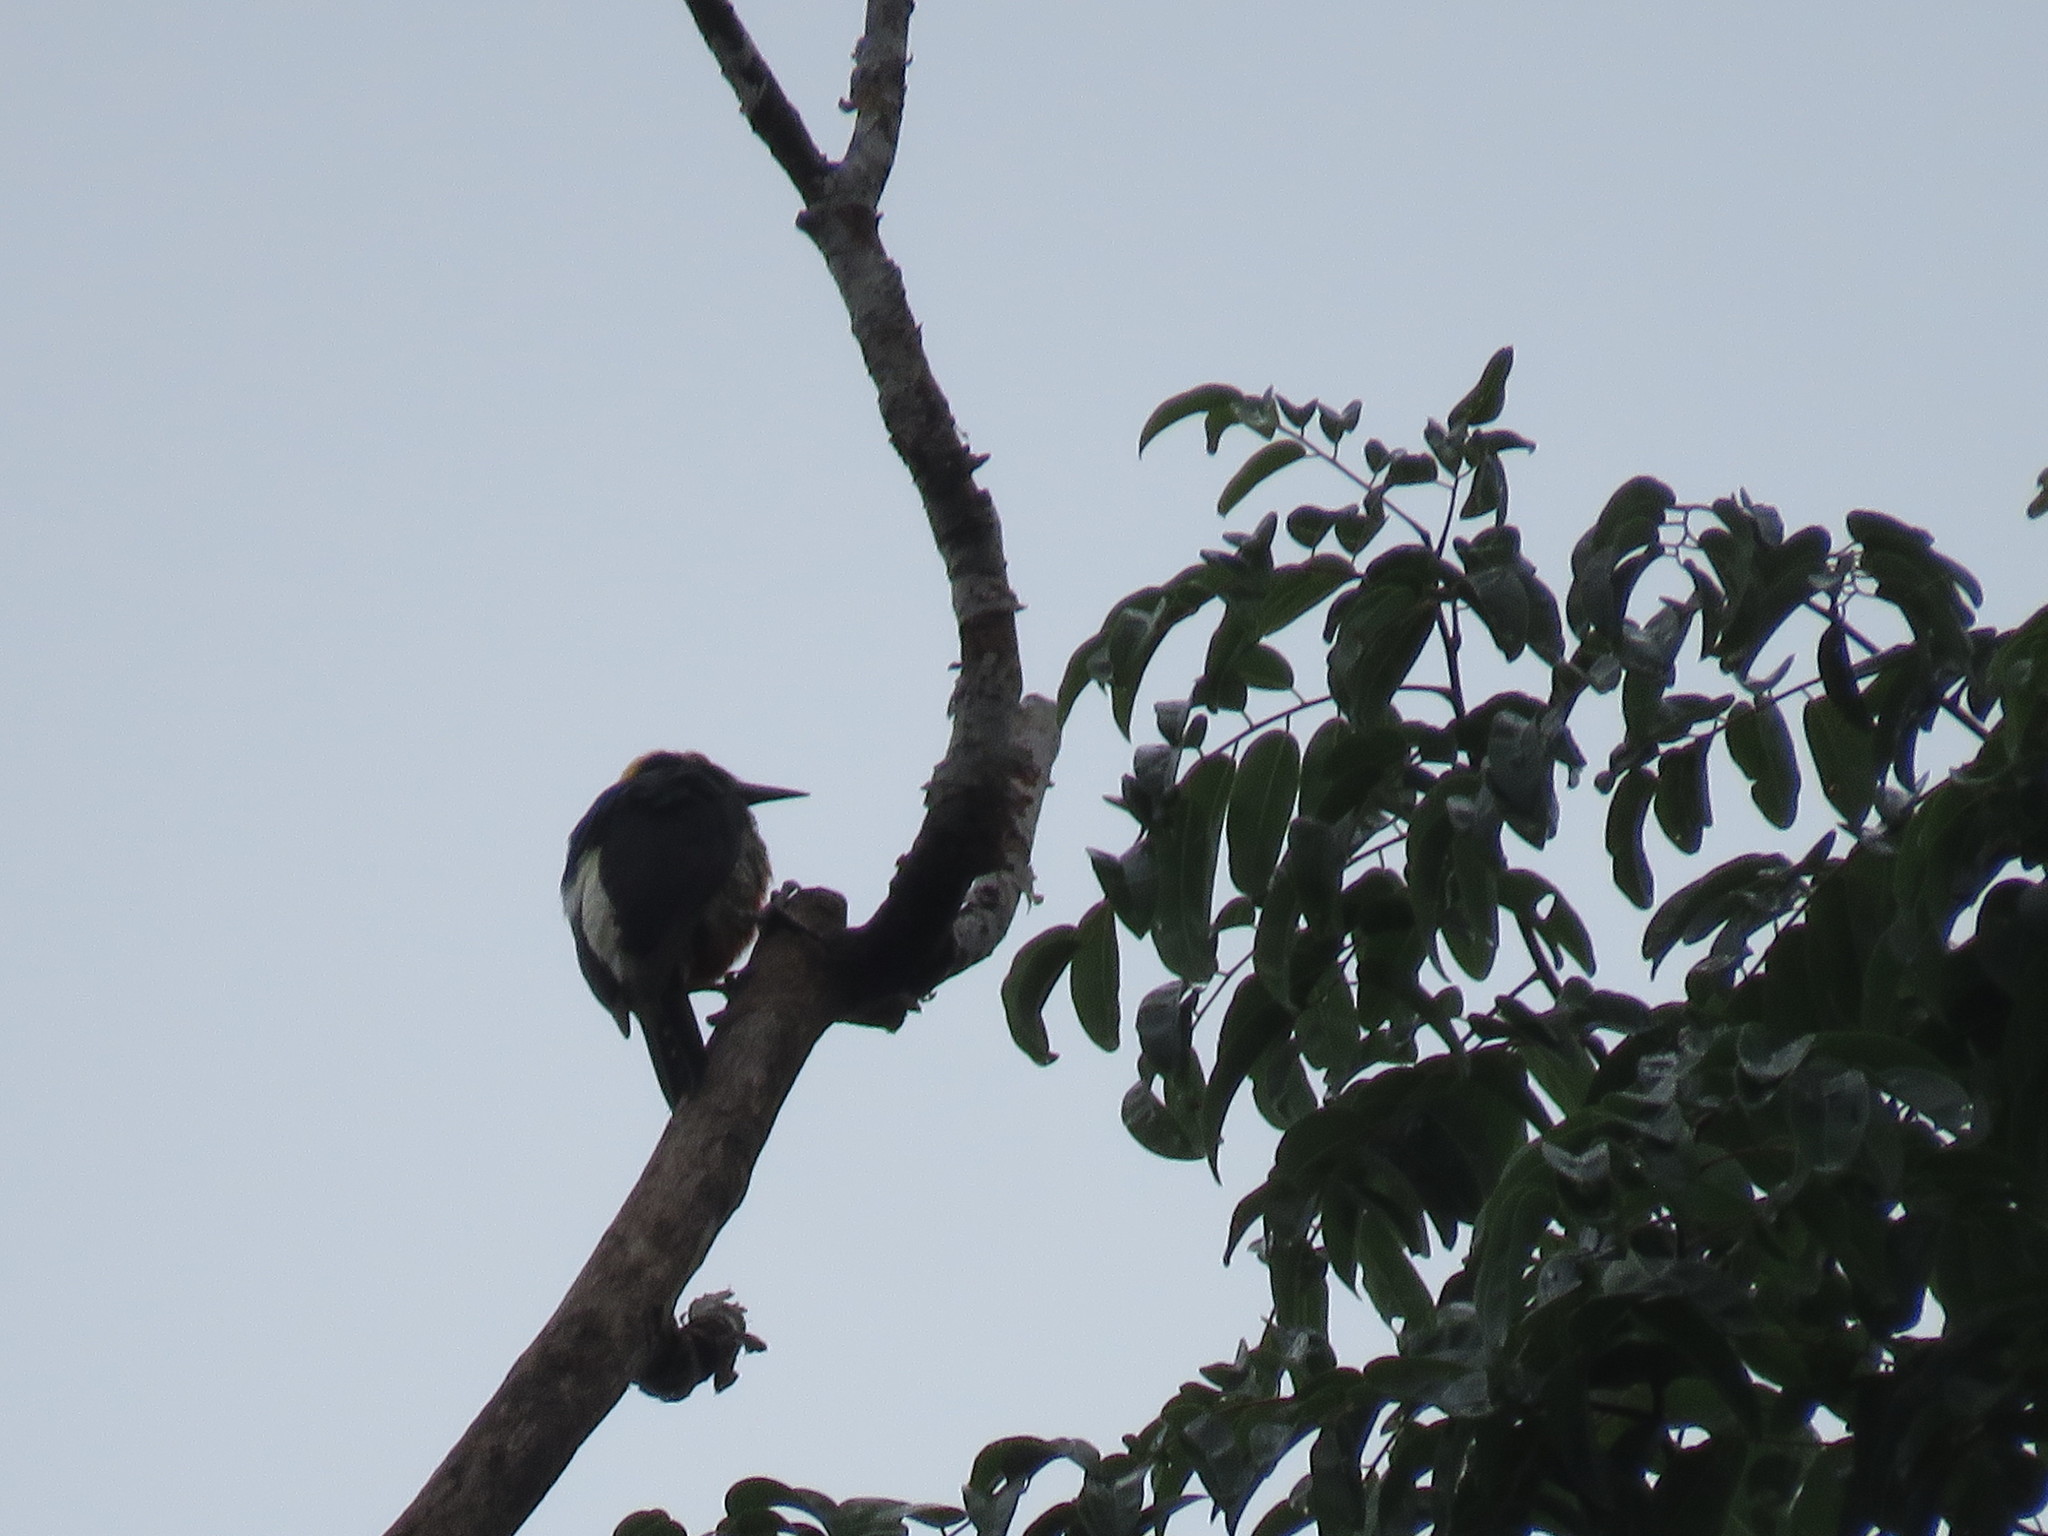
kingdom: Animalia
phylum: Chordata
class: Aves
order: Piciformes
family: Picidae
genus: Melanerpes
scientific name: Melanerpes cruentatus
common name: Yellow-tufted woodpecker
